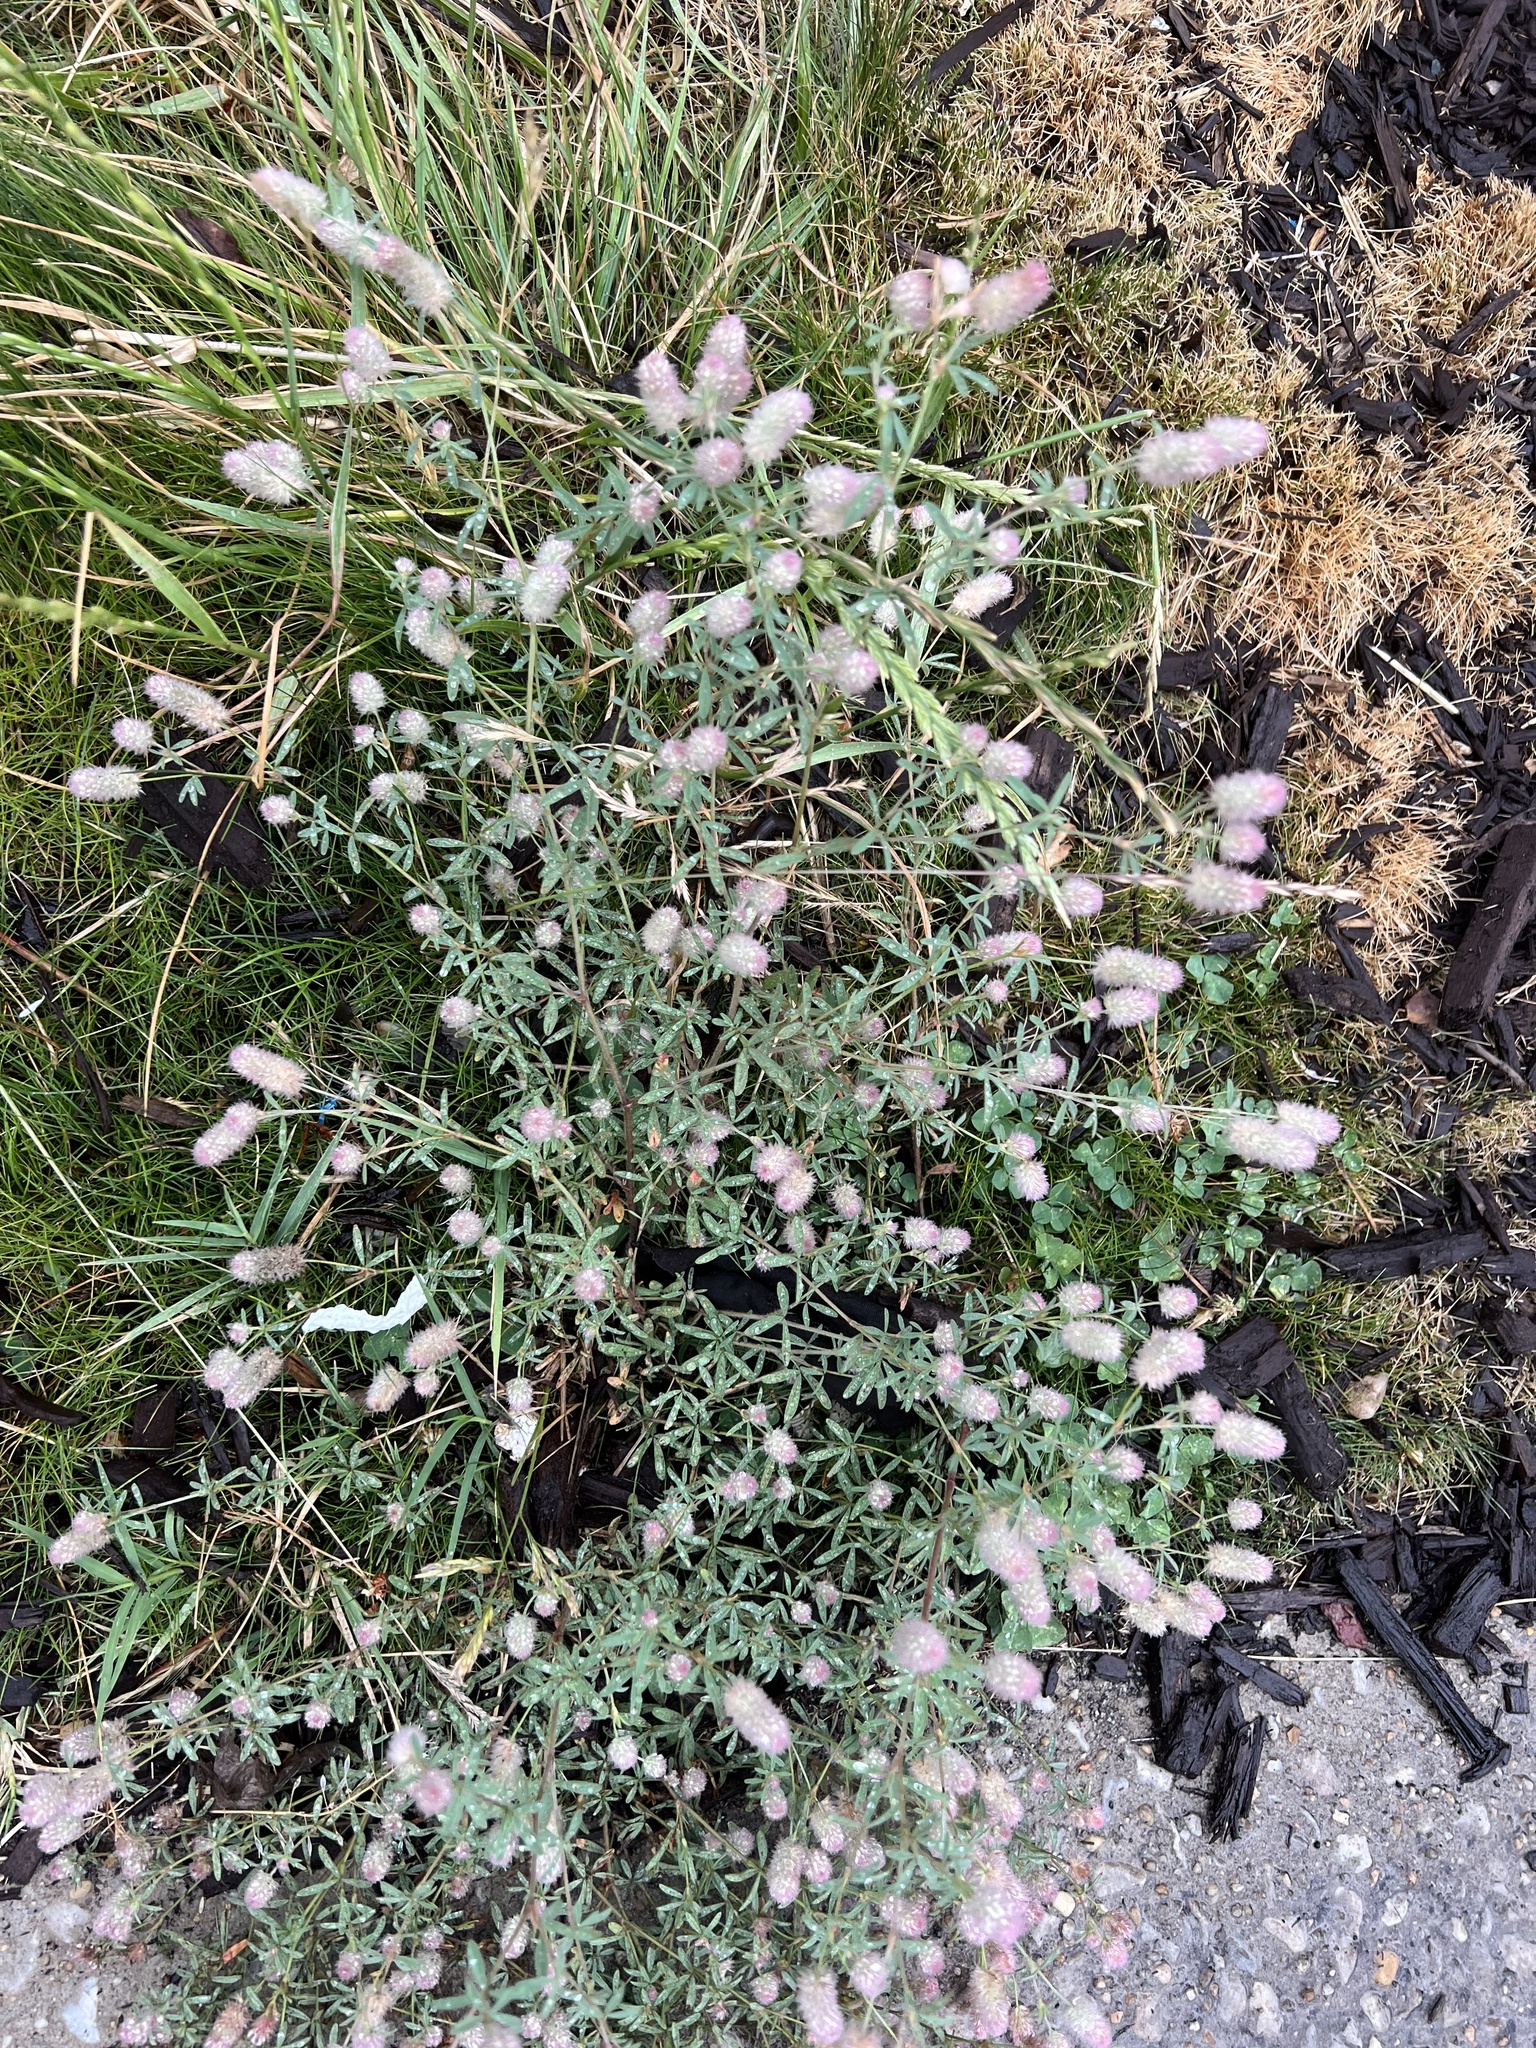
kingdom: Plantae
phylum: Tracheophyta
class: Magnoliopsida
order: Fabales
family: Fabaceae
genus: Trifolium
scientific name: Trifolium arvense
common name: Hare's-foot clover
